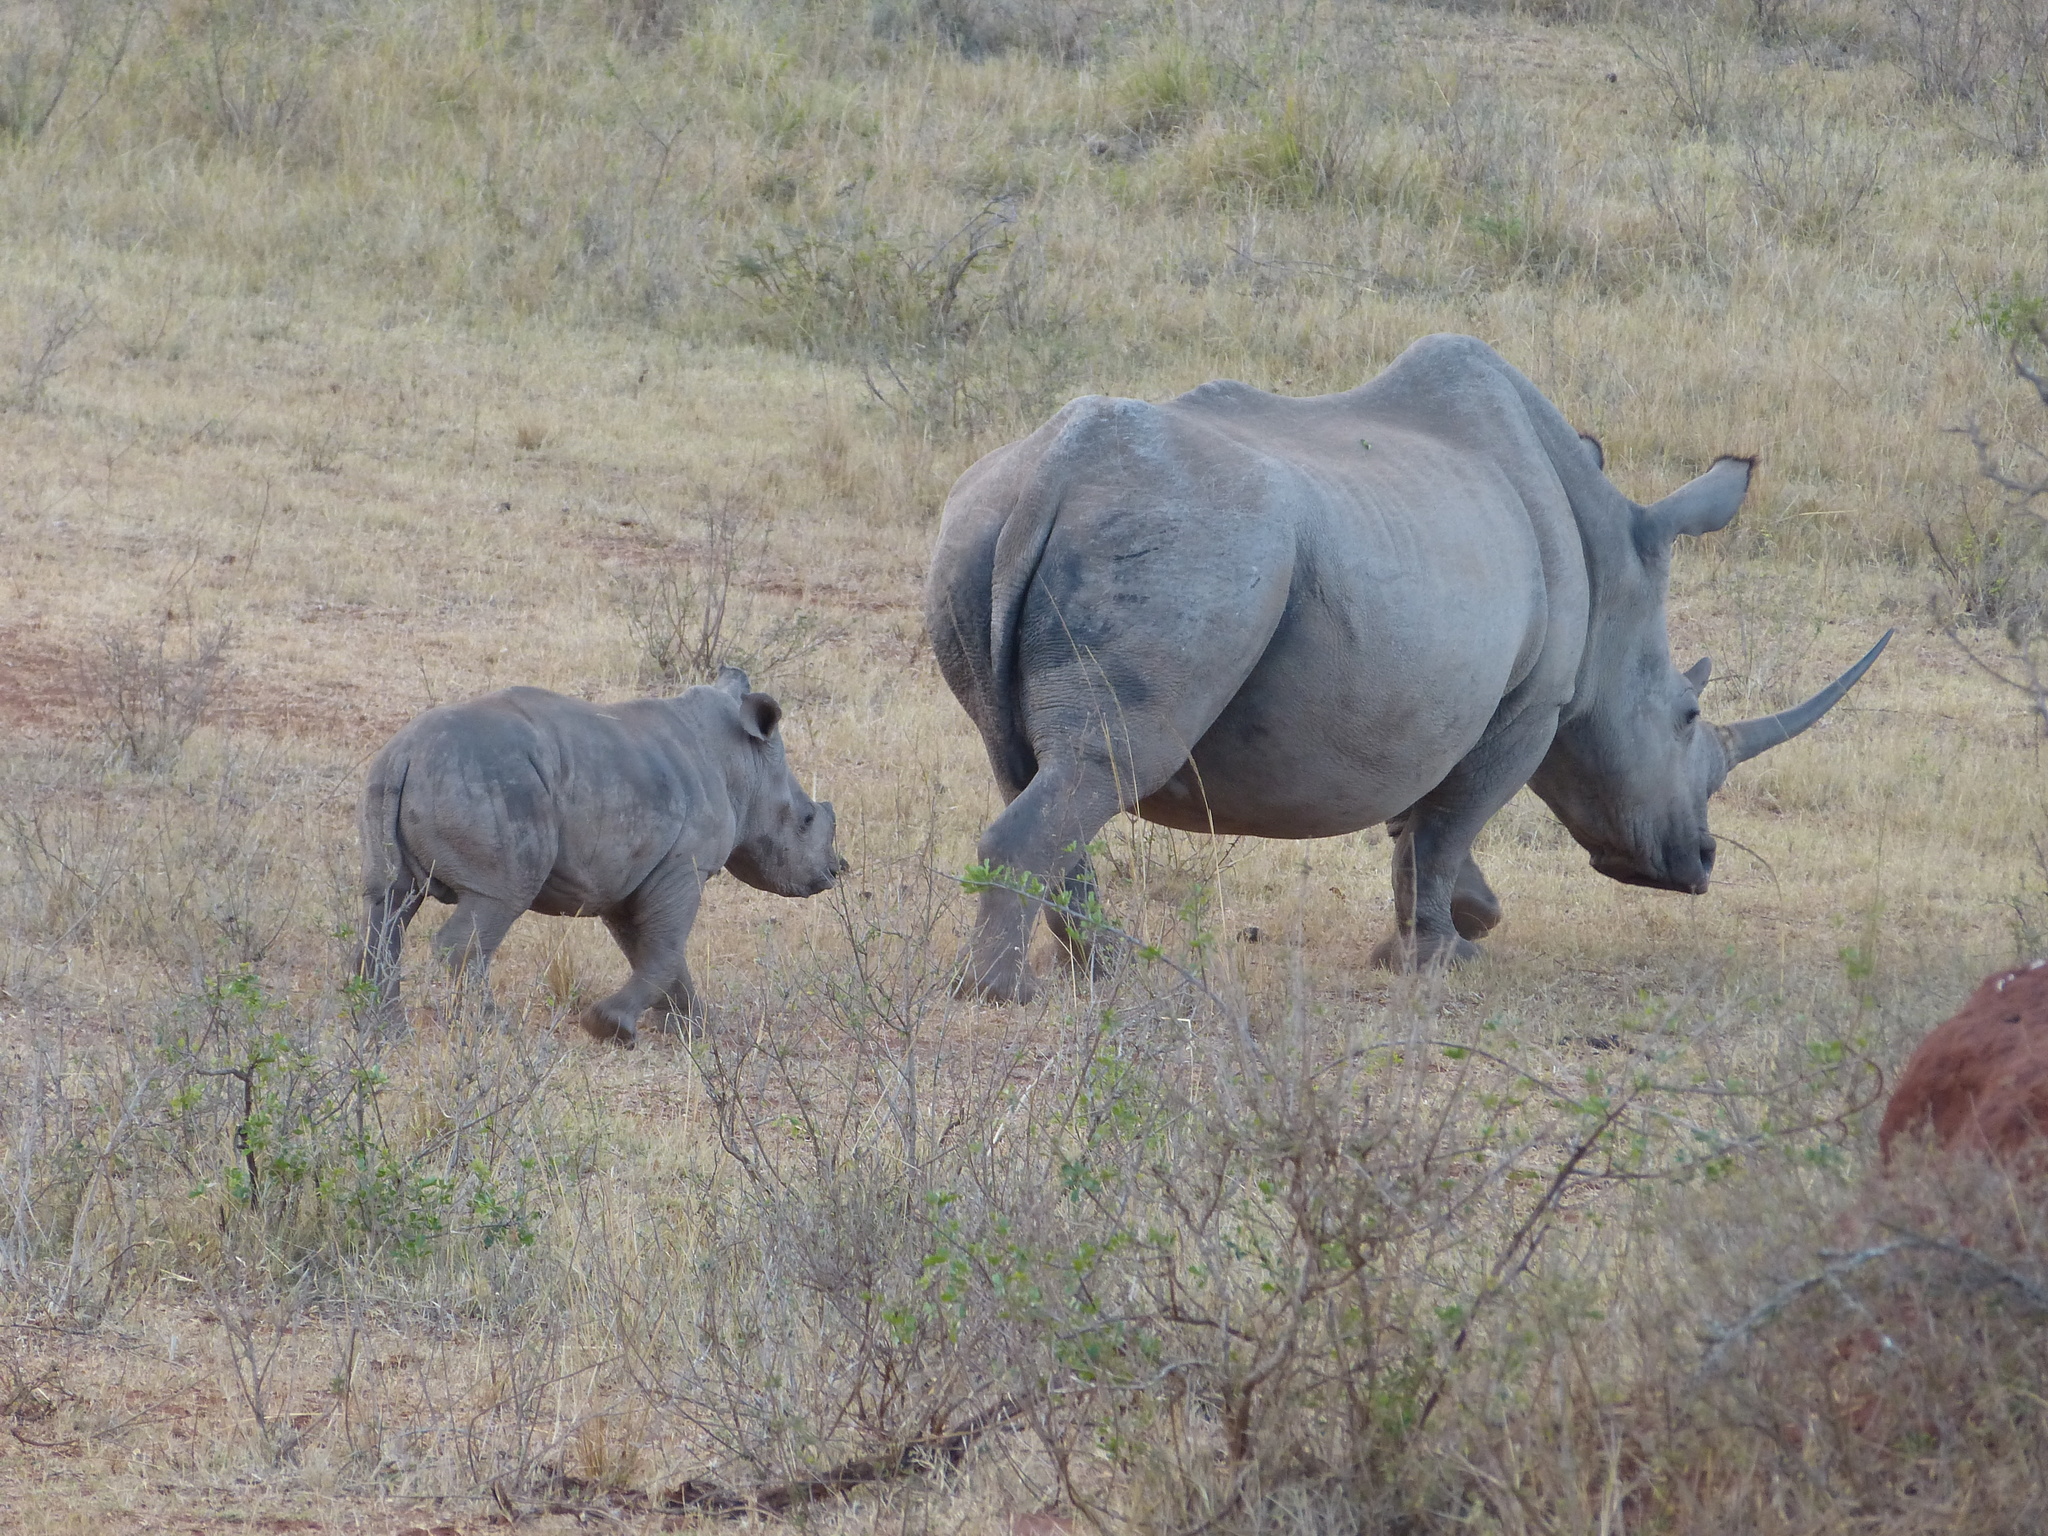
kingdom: Animalia
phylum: Chordata
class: Mammalia
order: Perissodactyla
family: Rhinocerotidae
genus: Ceratotherium
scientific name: Ceratotherium simum
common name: White rhinoceros
